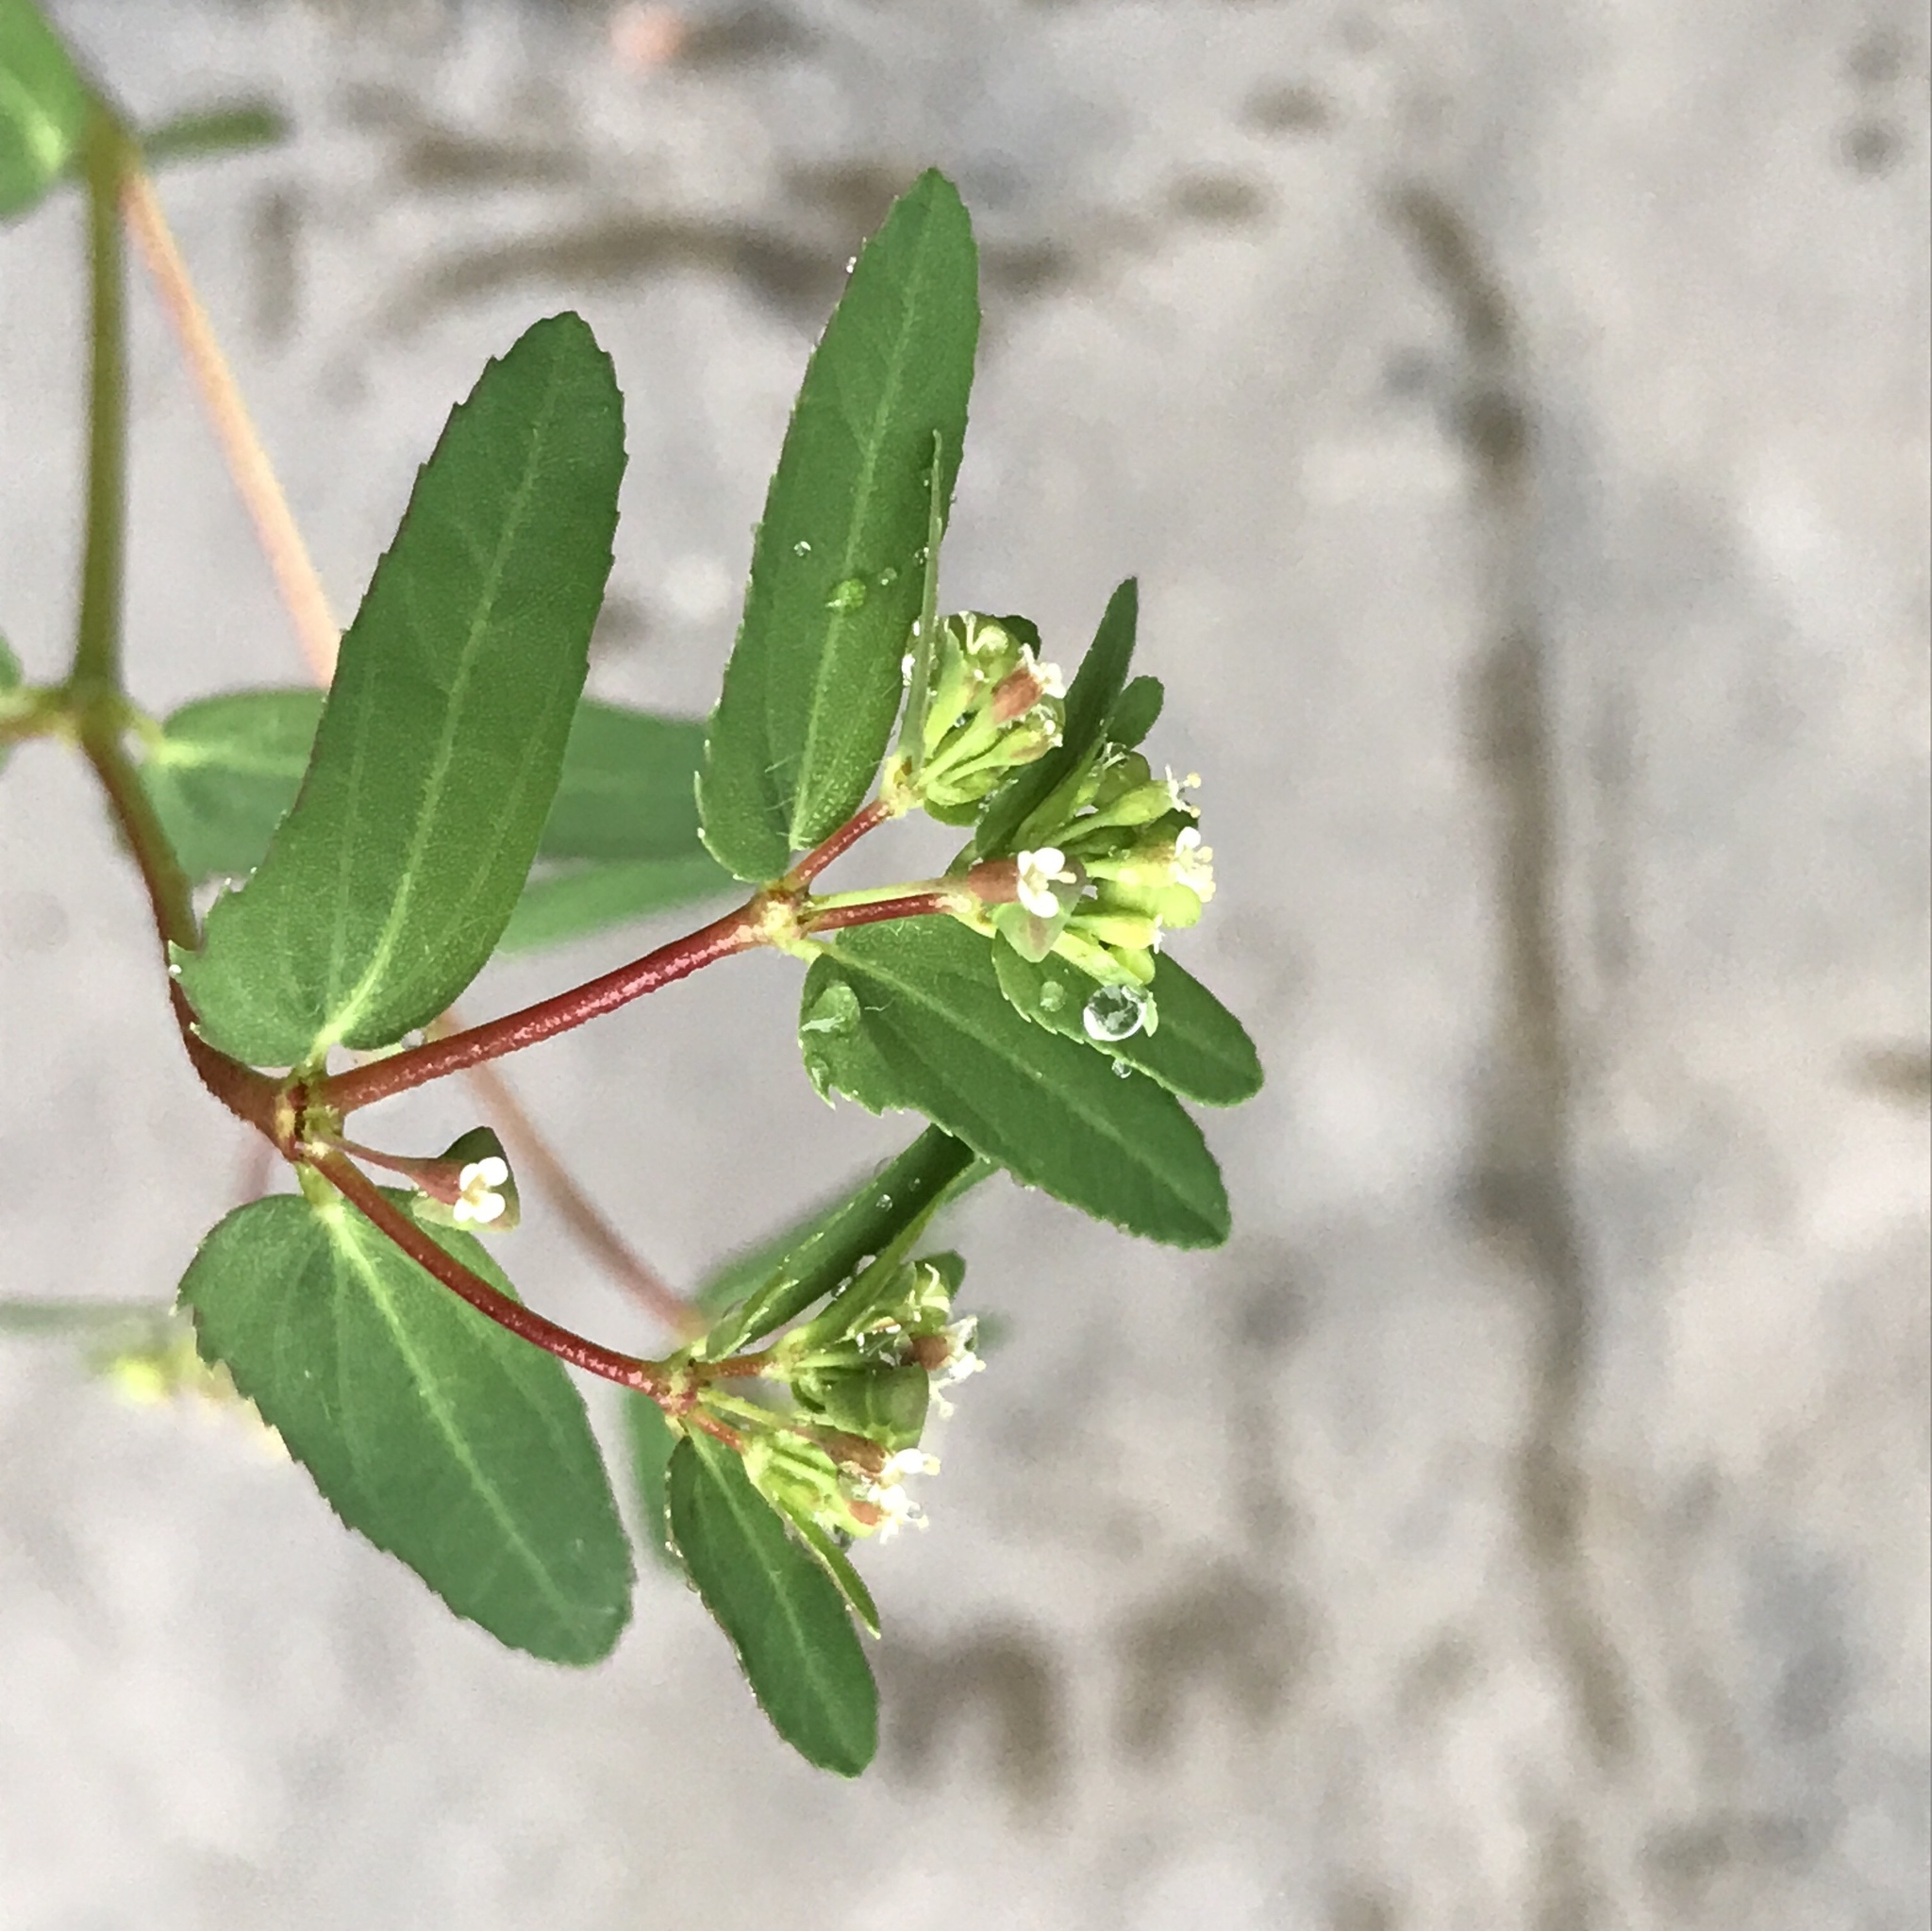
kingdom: Plantae
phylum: Tracheophyta
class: Magnoliopsida
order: Malpighiales
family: Euphorbiaceae
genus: Euphorbia
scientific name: Euphorbia nutans
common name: Eyebane
